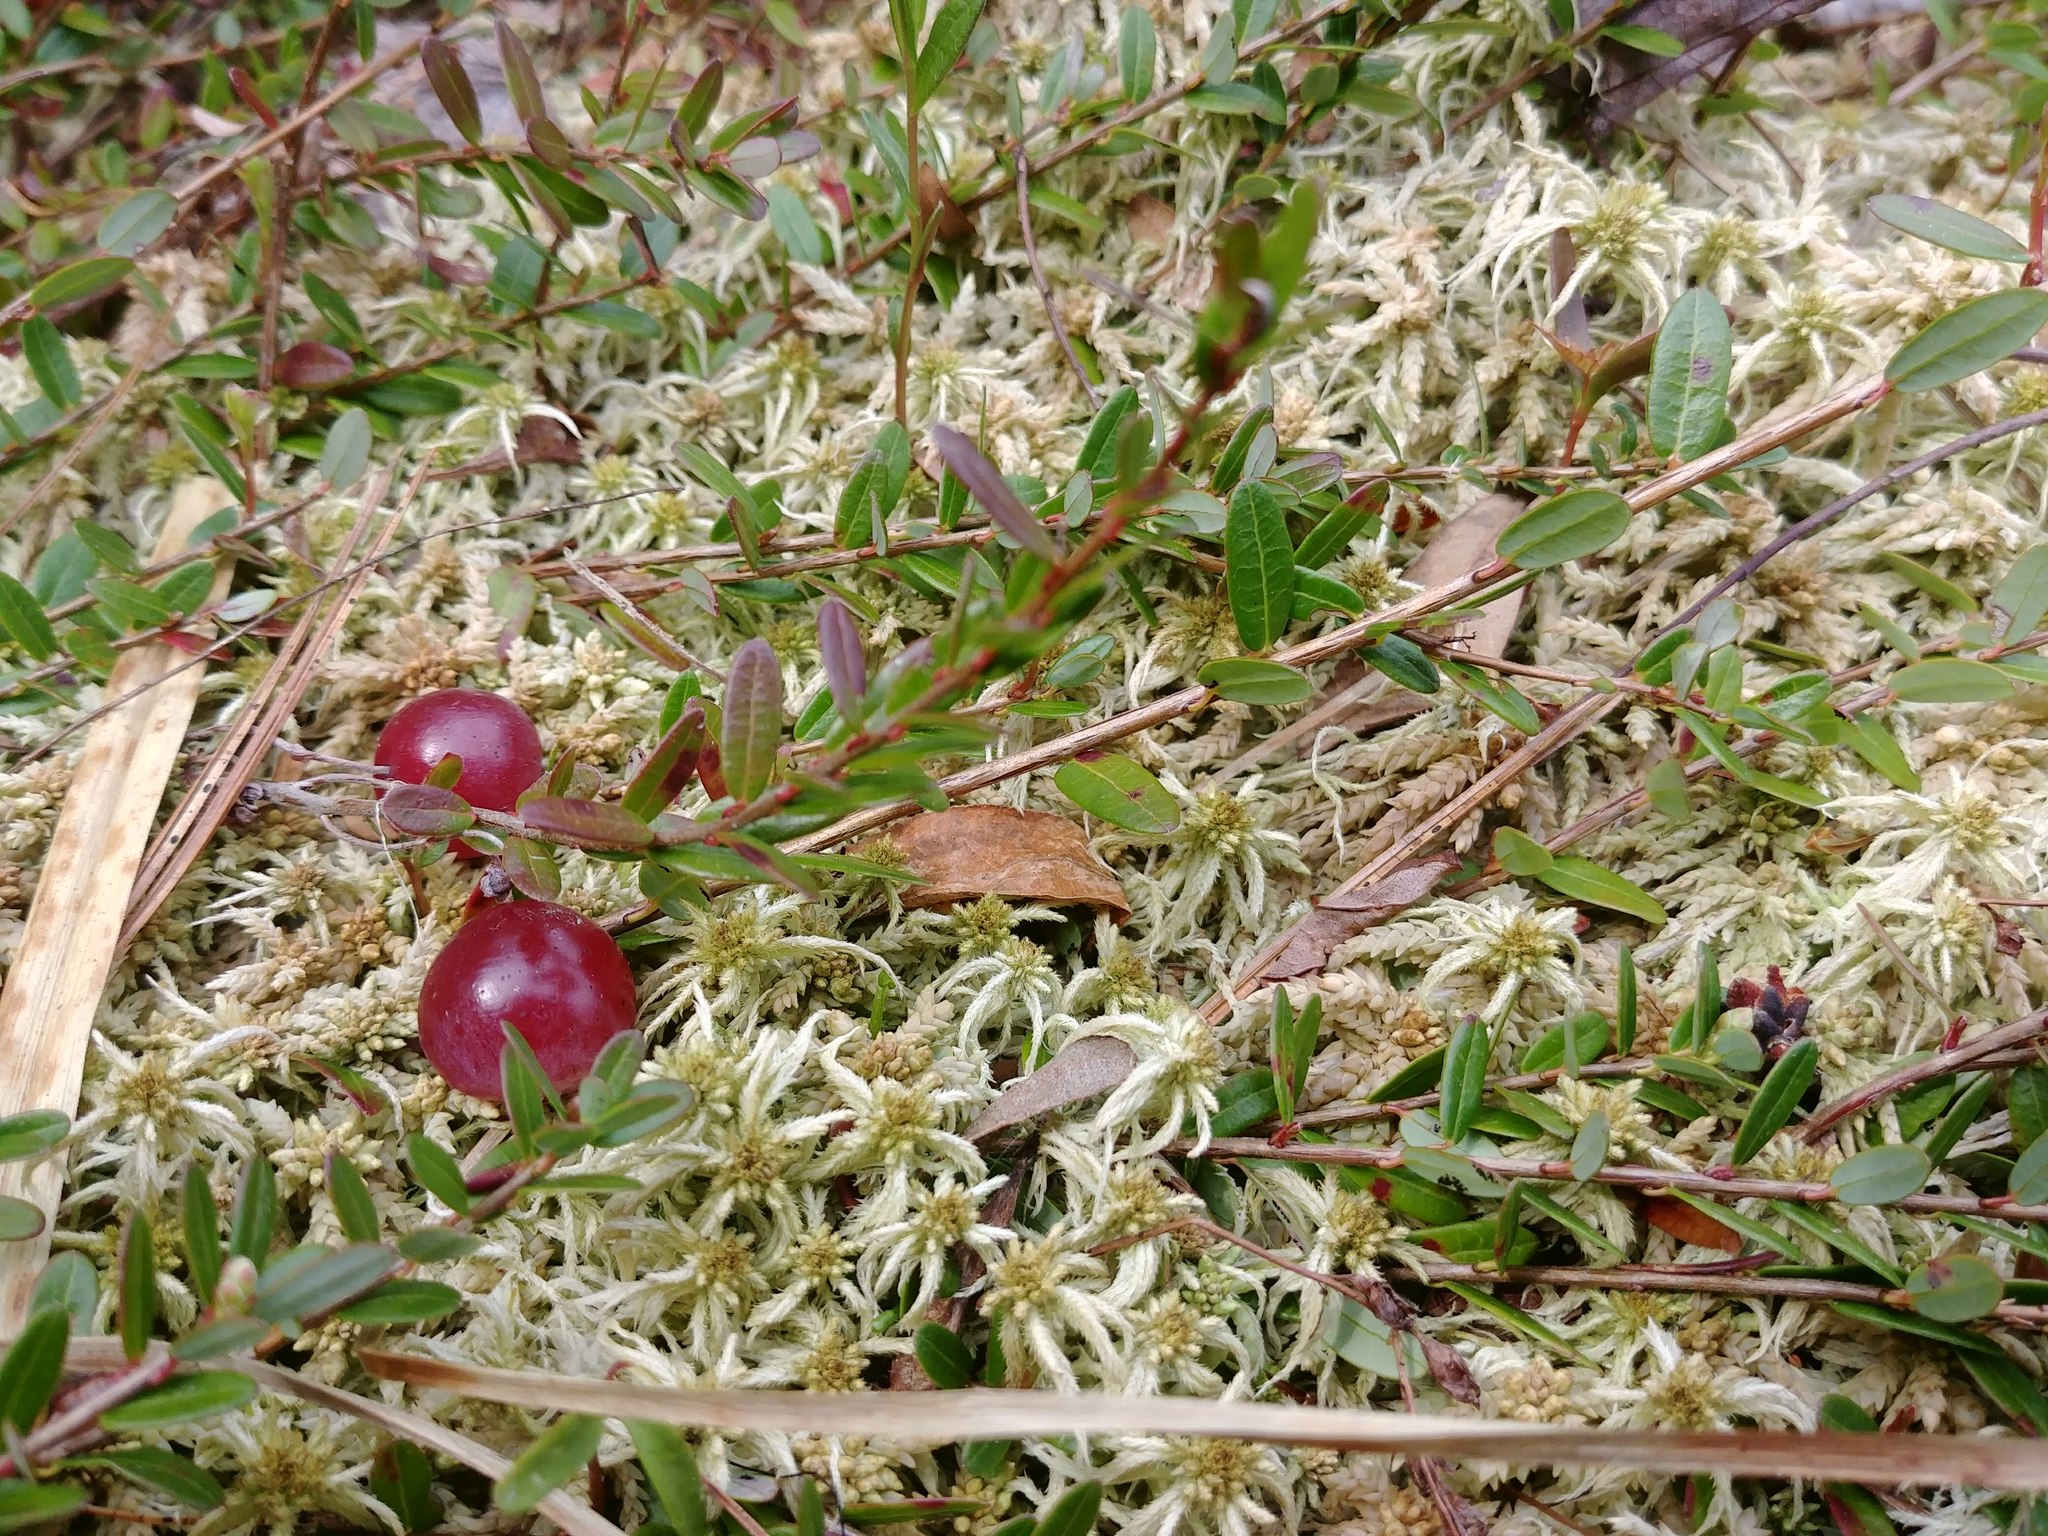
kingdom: Plantae
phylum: Tracheophyta
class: Magnoliopsida
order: Ericales
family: Ericaceae
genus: Vaccinium
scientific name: Vaccinium macrocarpon
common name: American cranberry
